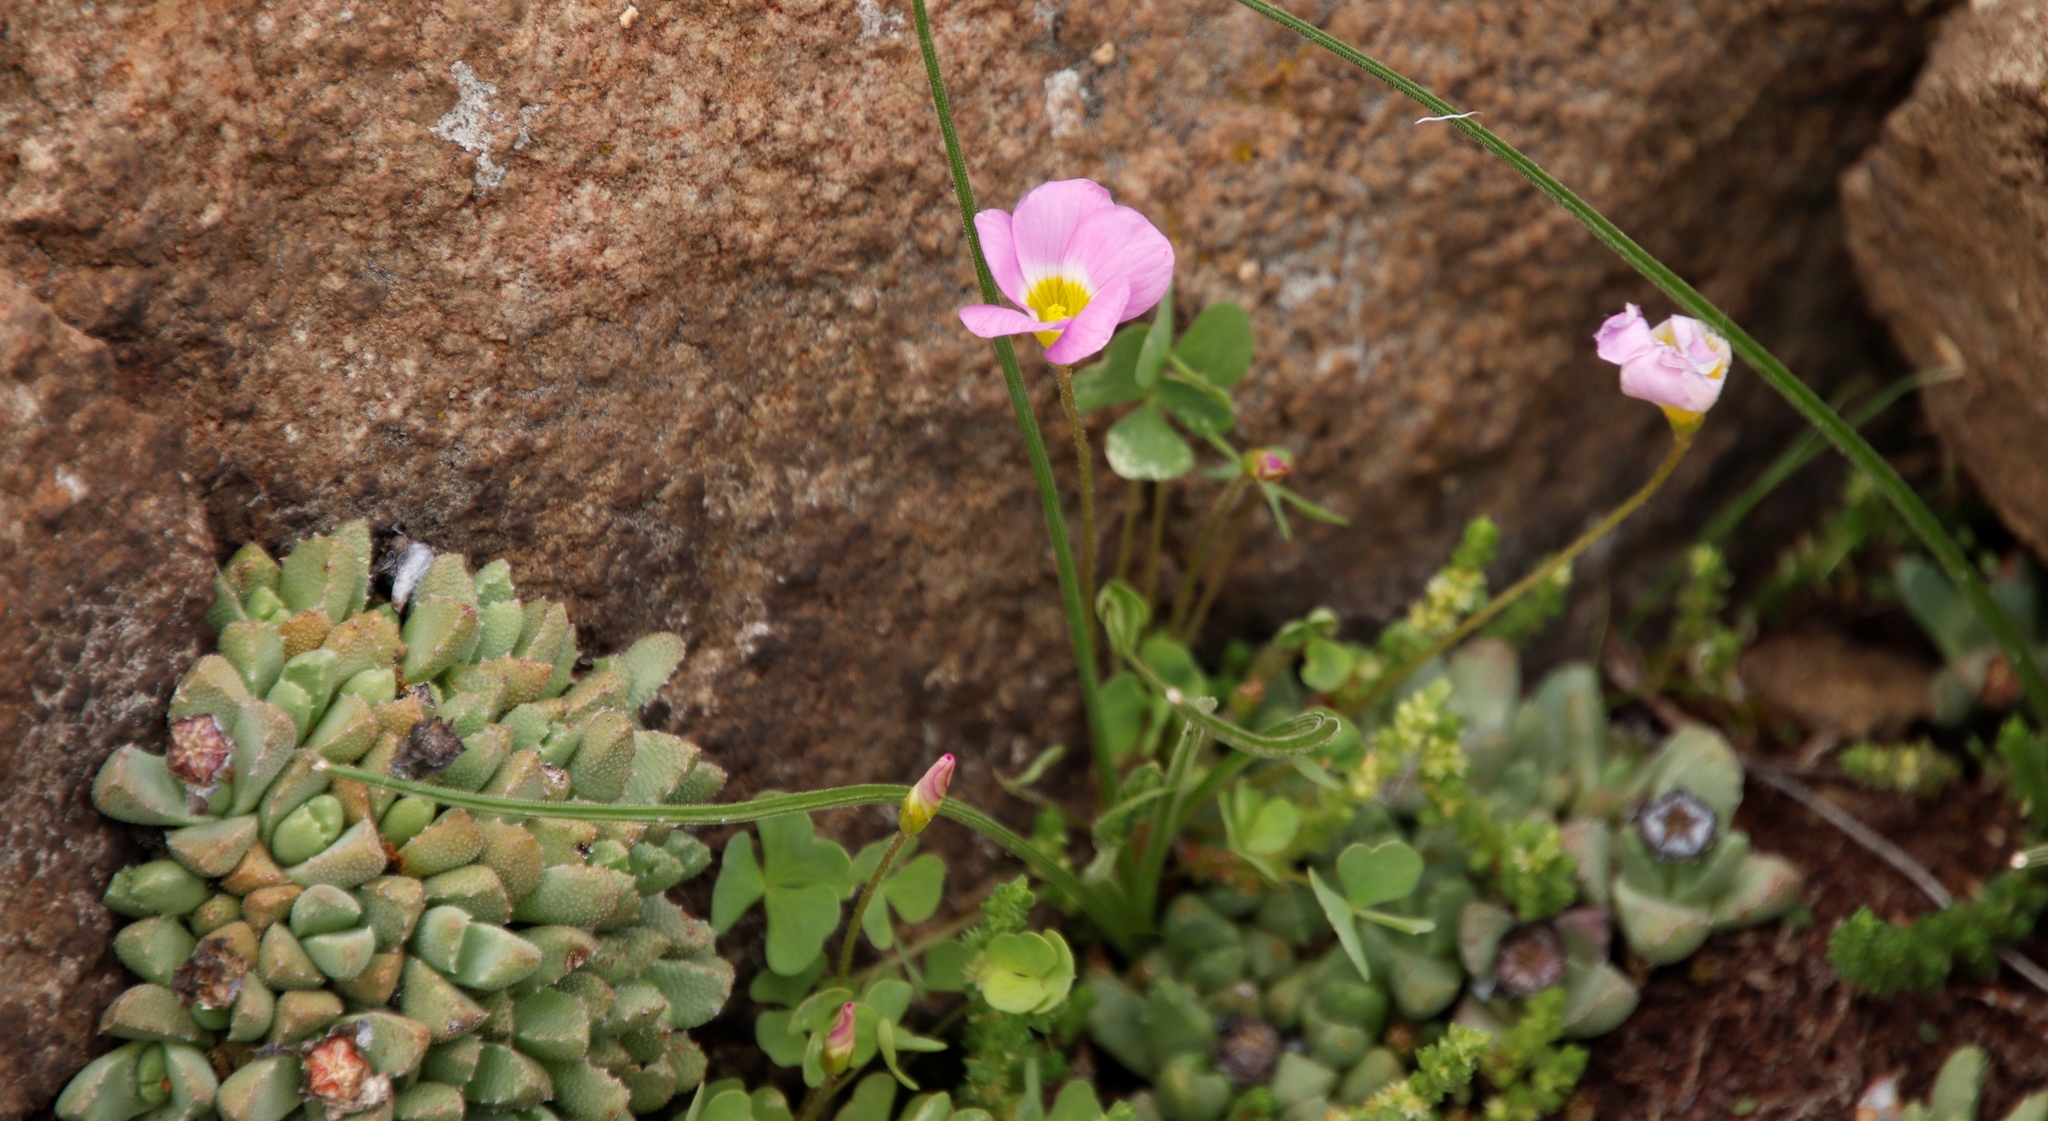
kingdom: Plantae
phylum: Tracheophyta
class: Magnoliopsida
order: Oxalidales
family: Oxalidaceae
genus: Oxalis
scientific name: Oxalis obliquifolia
